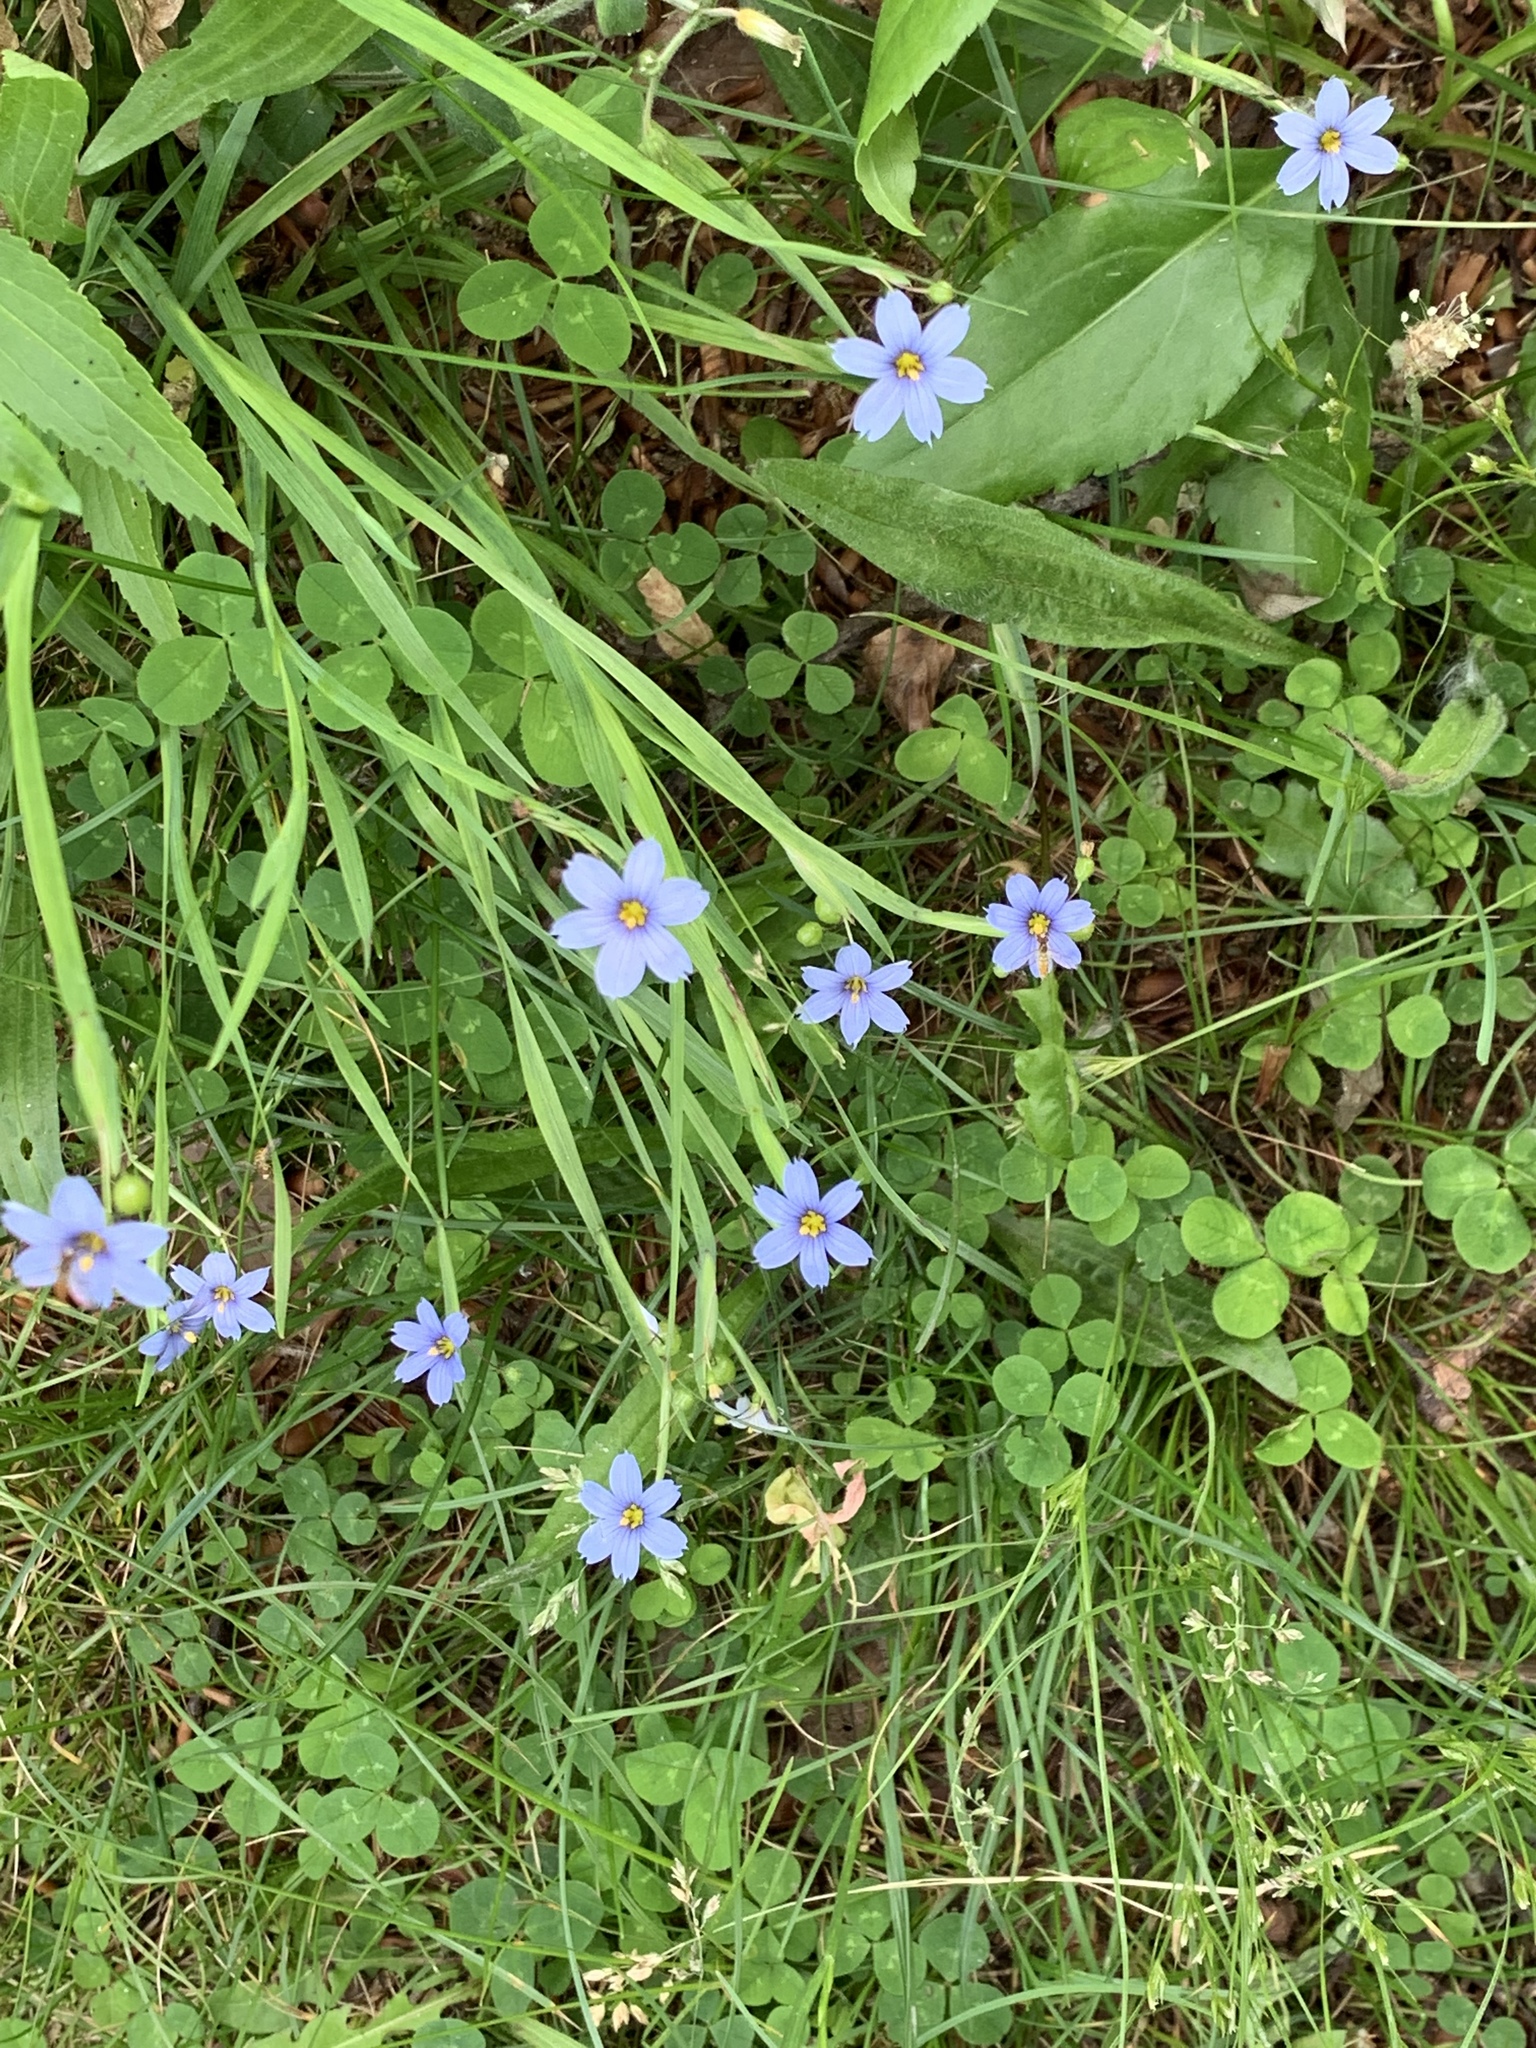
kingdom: Plantae
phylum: Tracheophyta
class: Liliopsida
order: Asparagales
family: Iridaceae
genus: Sisyrinchium
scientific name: Sisyrinchium montanum
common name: American blue-eyed-grass
